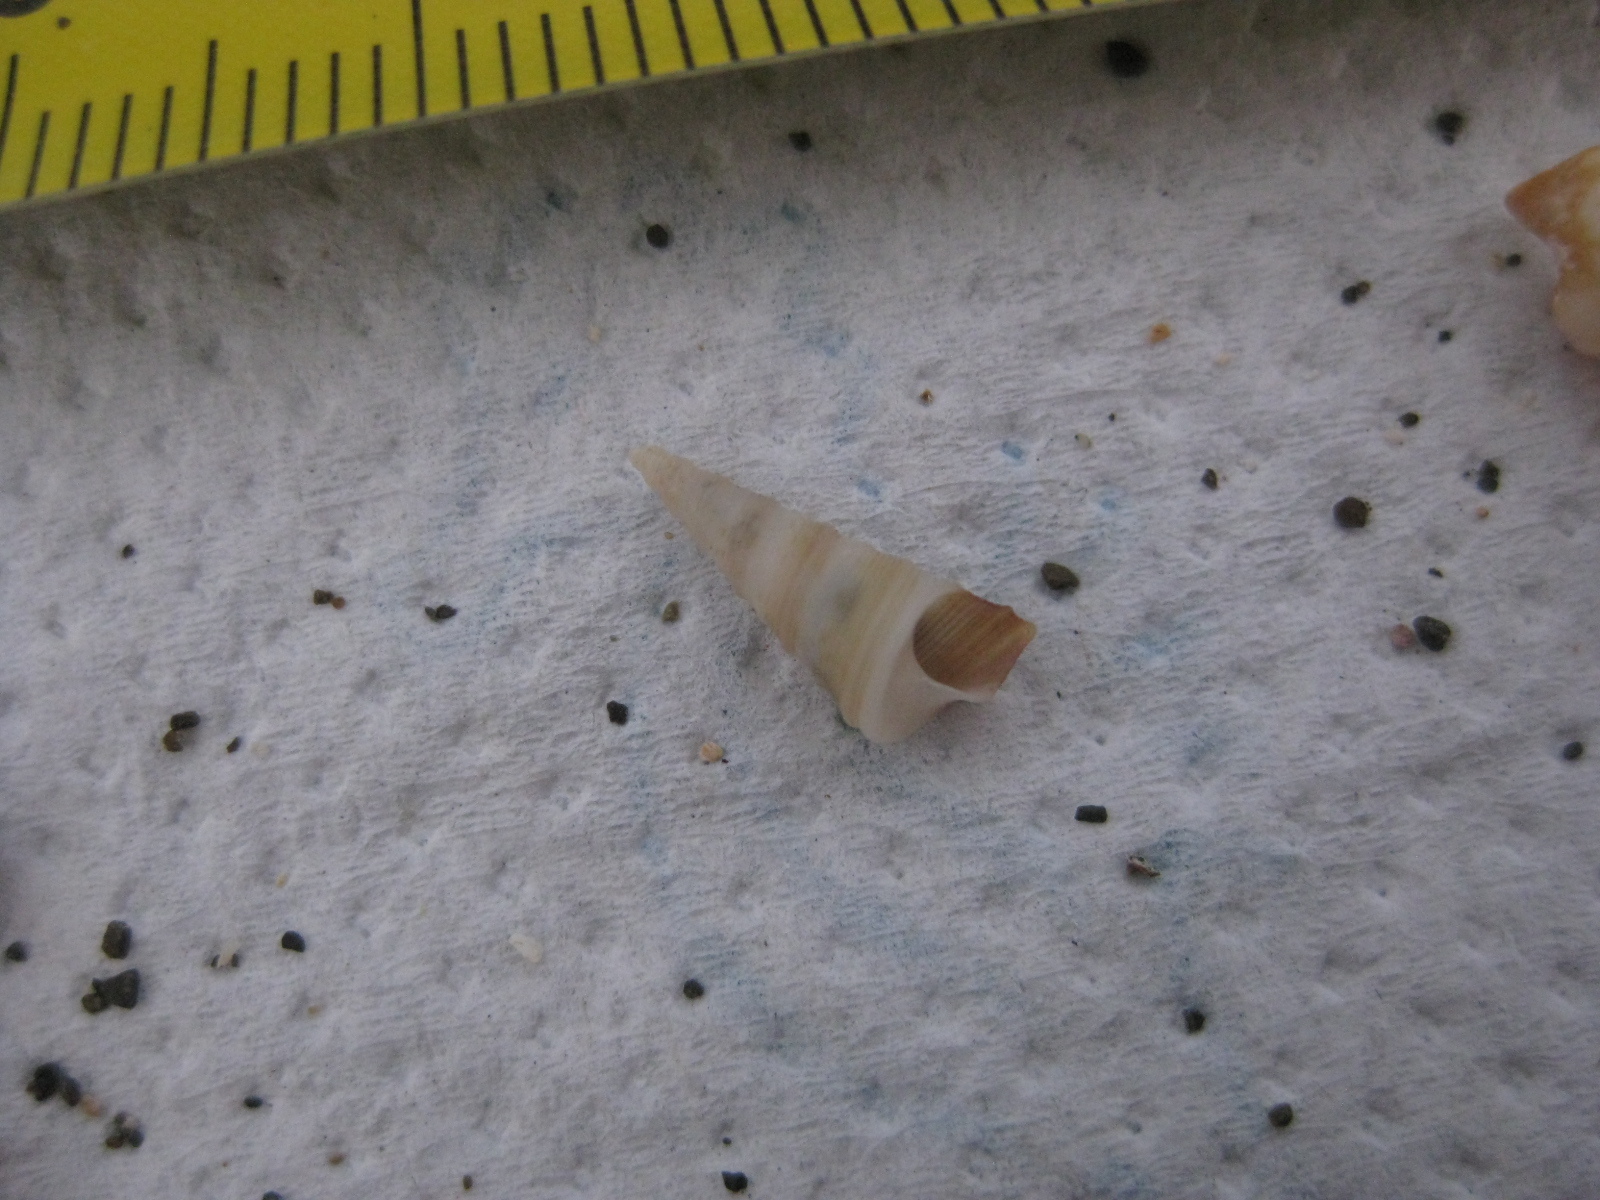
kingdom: Animalia
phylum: Mollusca
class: Gastropoda
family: Turritellidae
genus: Maoricolpus
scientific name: Maoricolpus roseus
